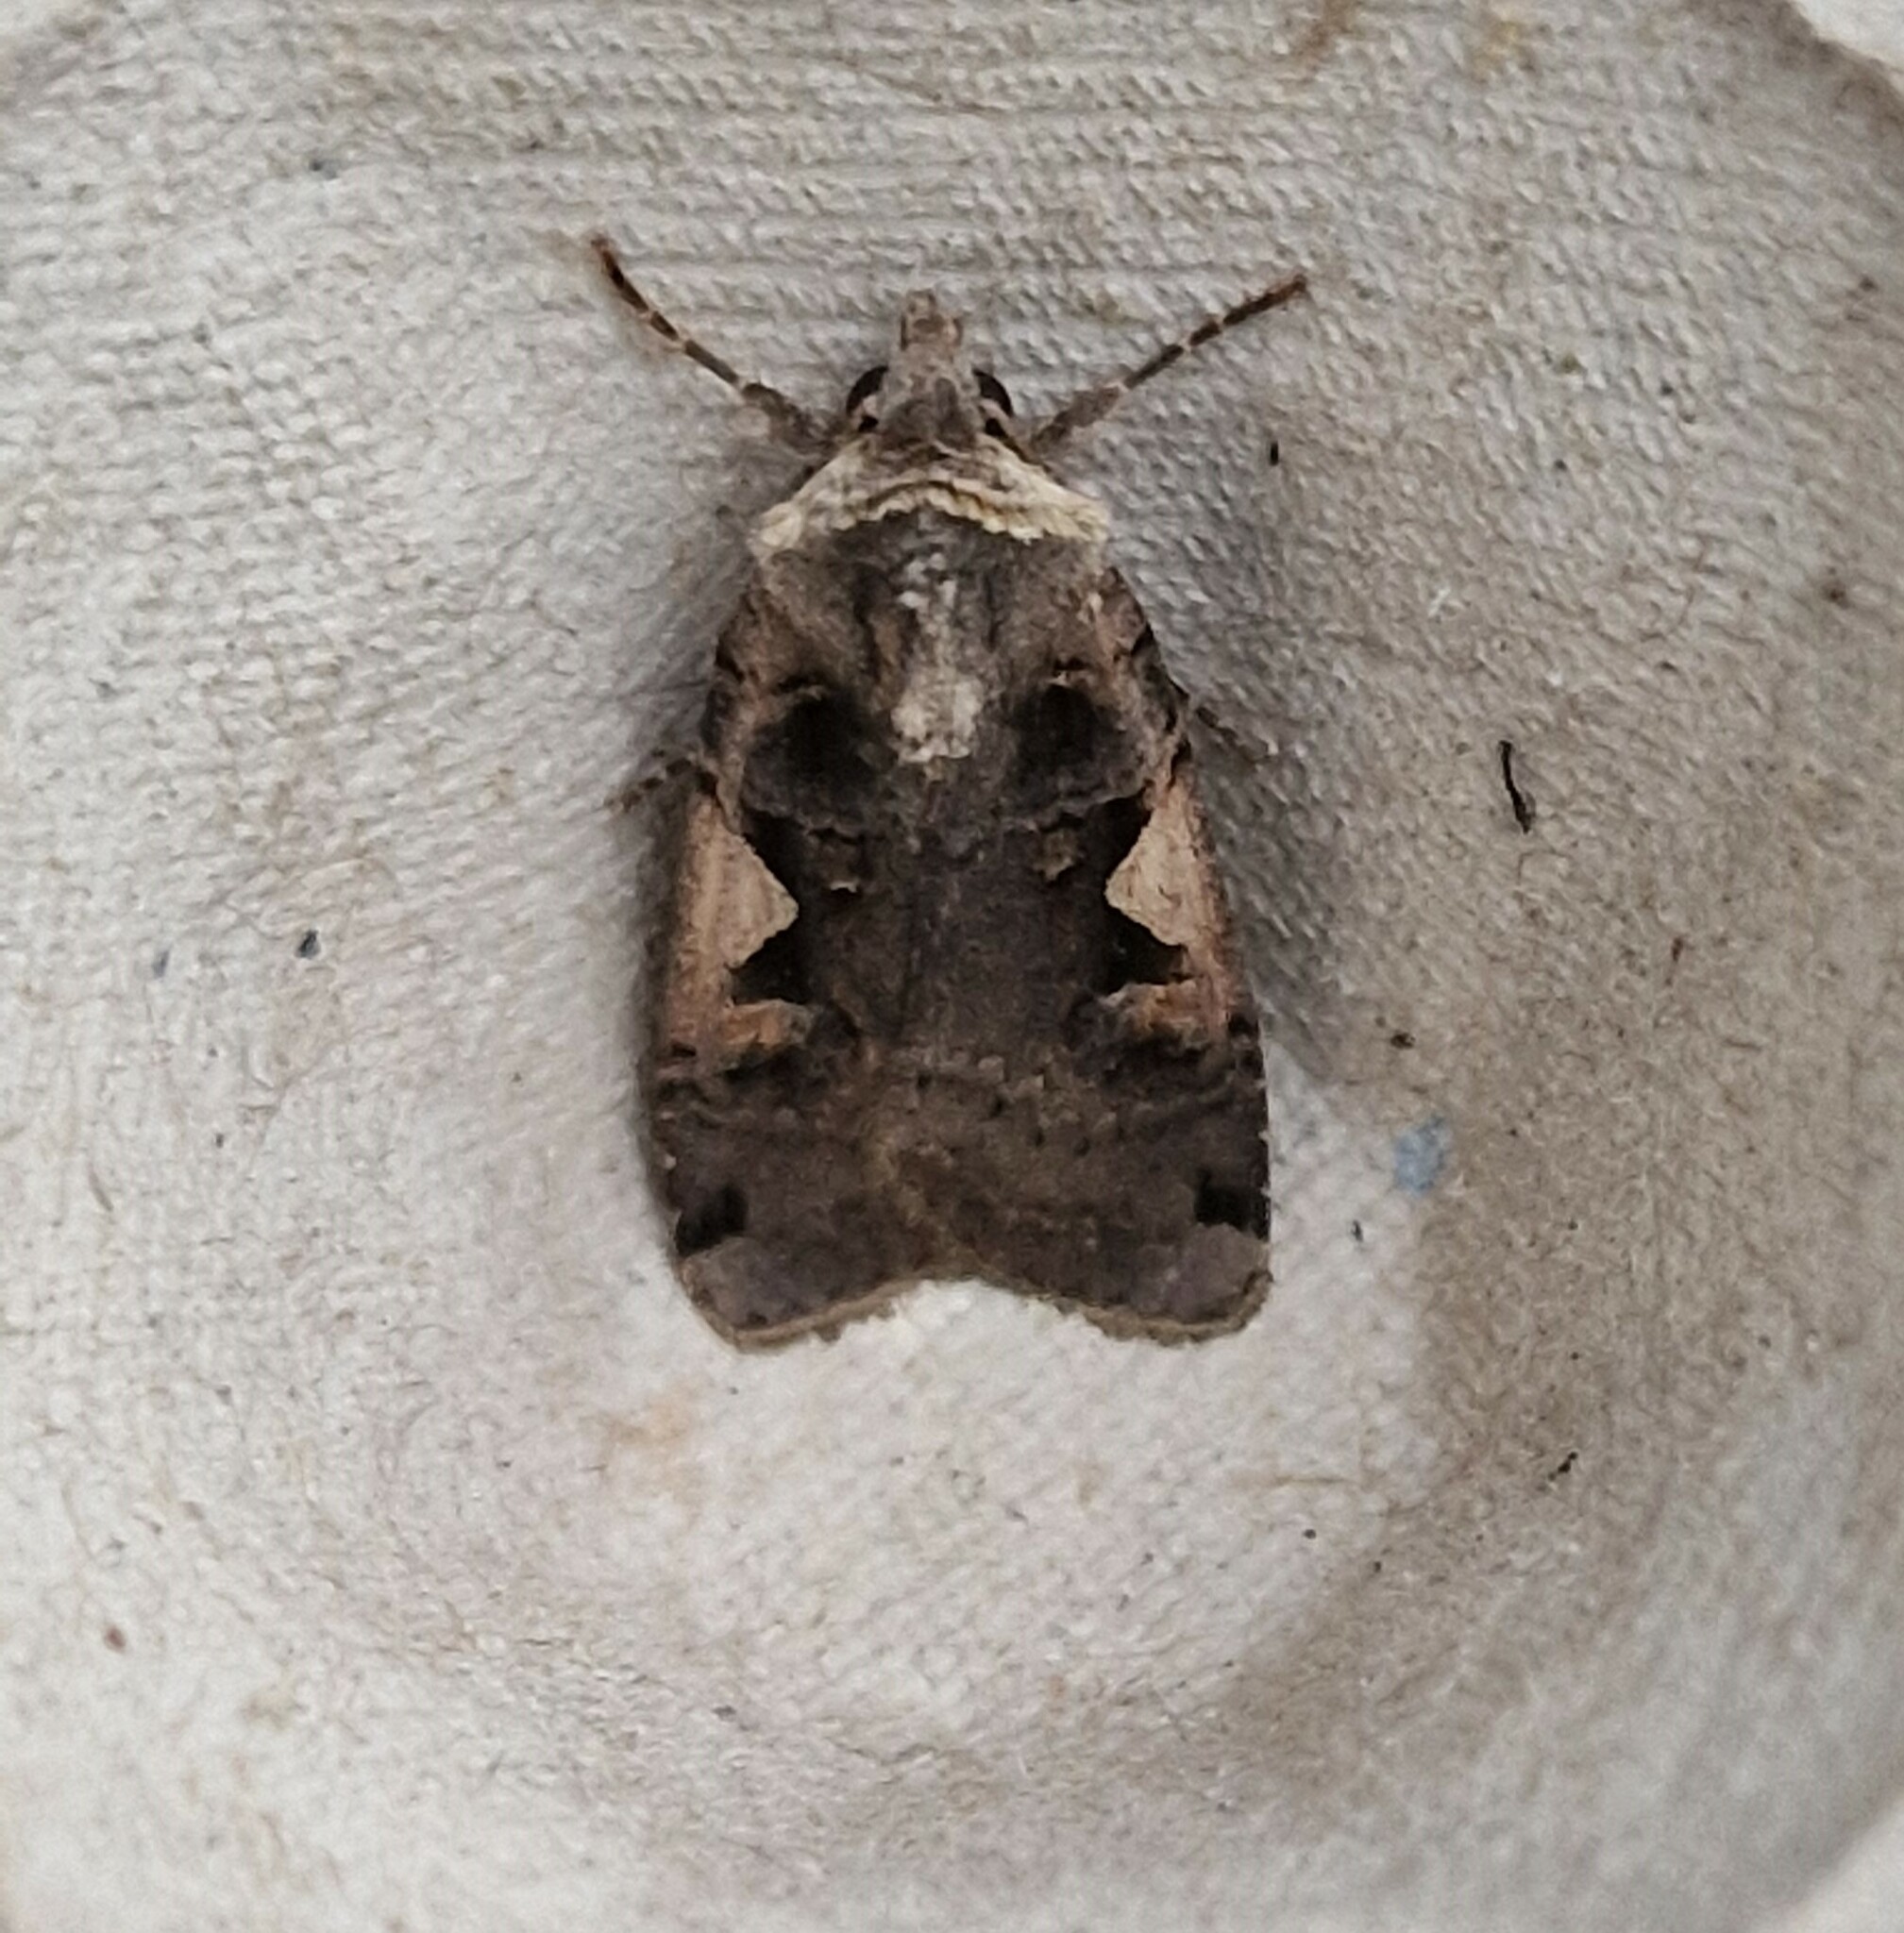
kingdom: Animalia
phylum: Arthropoda
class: Insecta
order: Lepidoptera
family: Noctuidae
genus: Xestia
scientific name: Xestia c-nigrum
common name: Setaceous hebrew character
